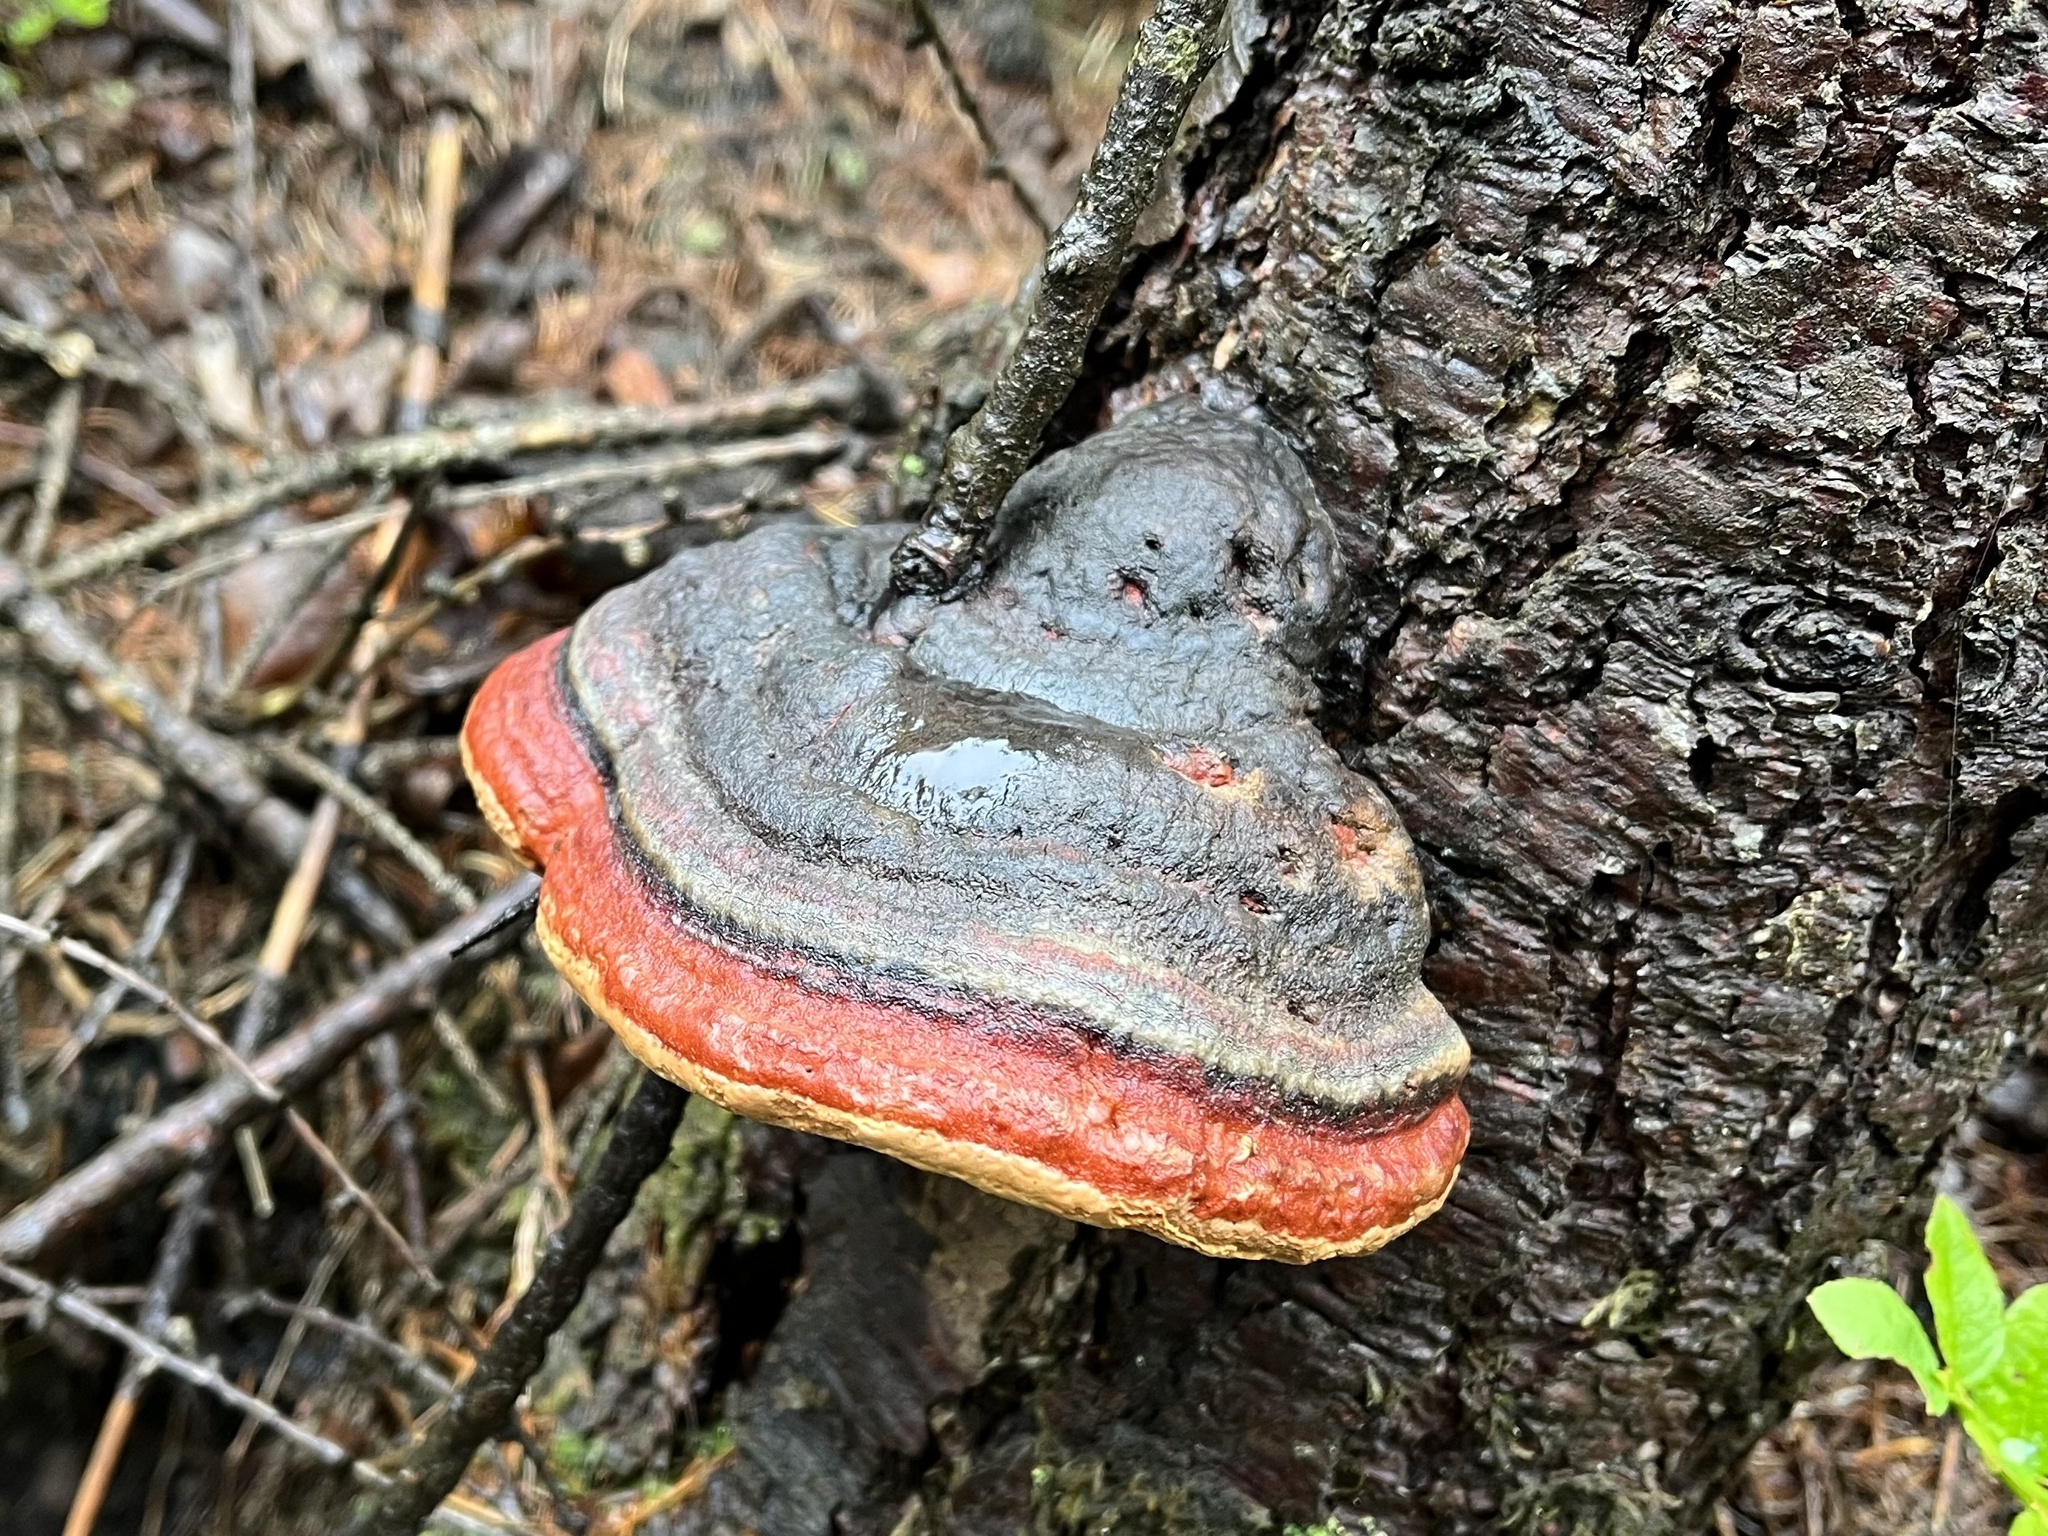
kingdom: Fungi
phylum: Basidiomycota
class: Agaricomycetes
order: Polyporales
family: Fomitopsidaceae
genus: Fomitopsis
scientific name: Fomitopsis pinicola
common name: Red-belted bracket
